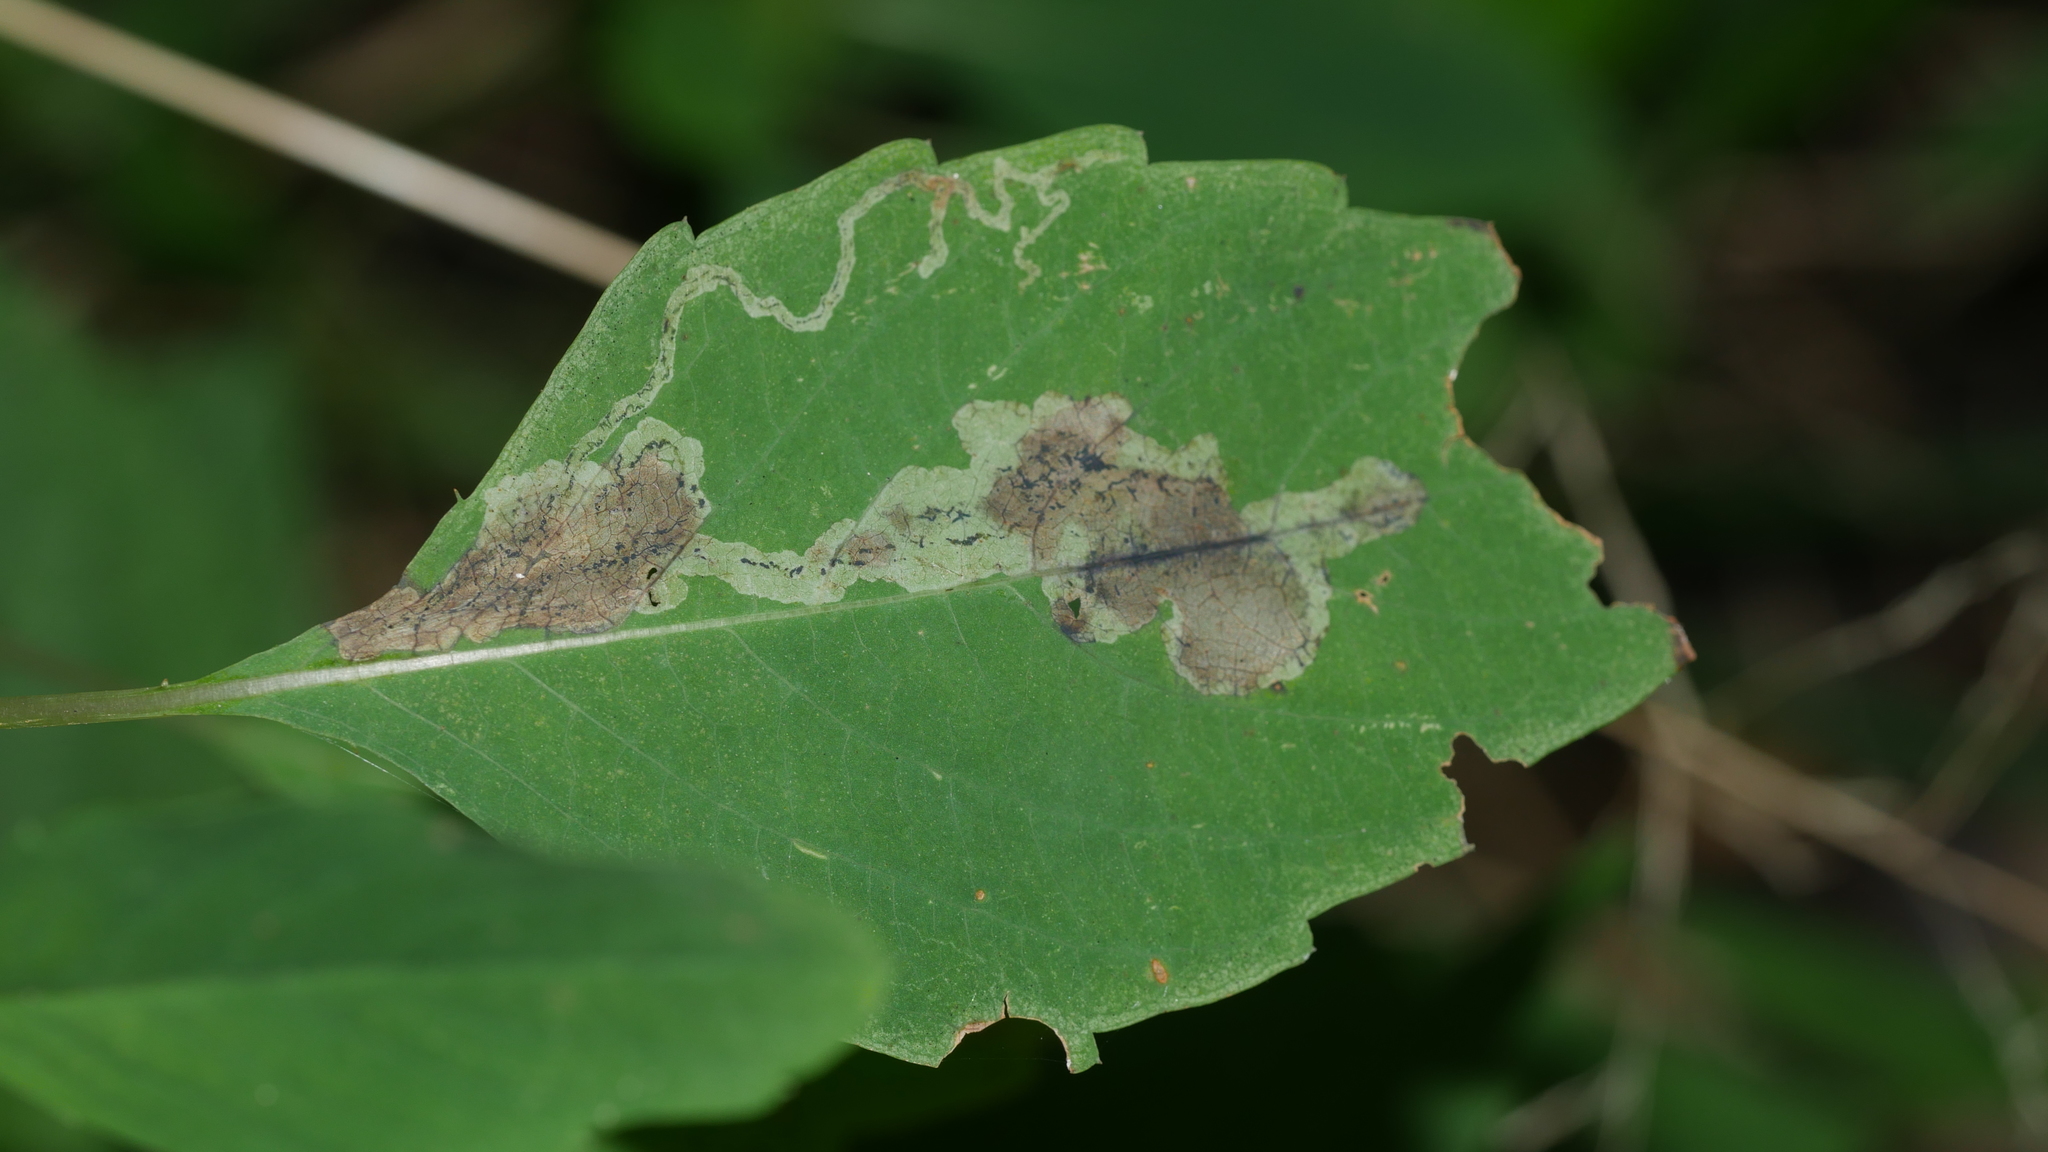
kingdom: Animalia
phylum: Arthropoda
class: Insecta
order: Diptera
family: Agromyzidae
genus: Phytoliriomyza
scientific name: Phytoliriomyza melampyga
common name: Jewelweed leaf-miner fly
